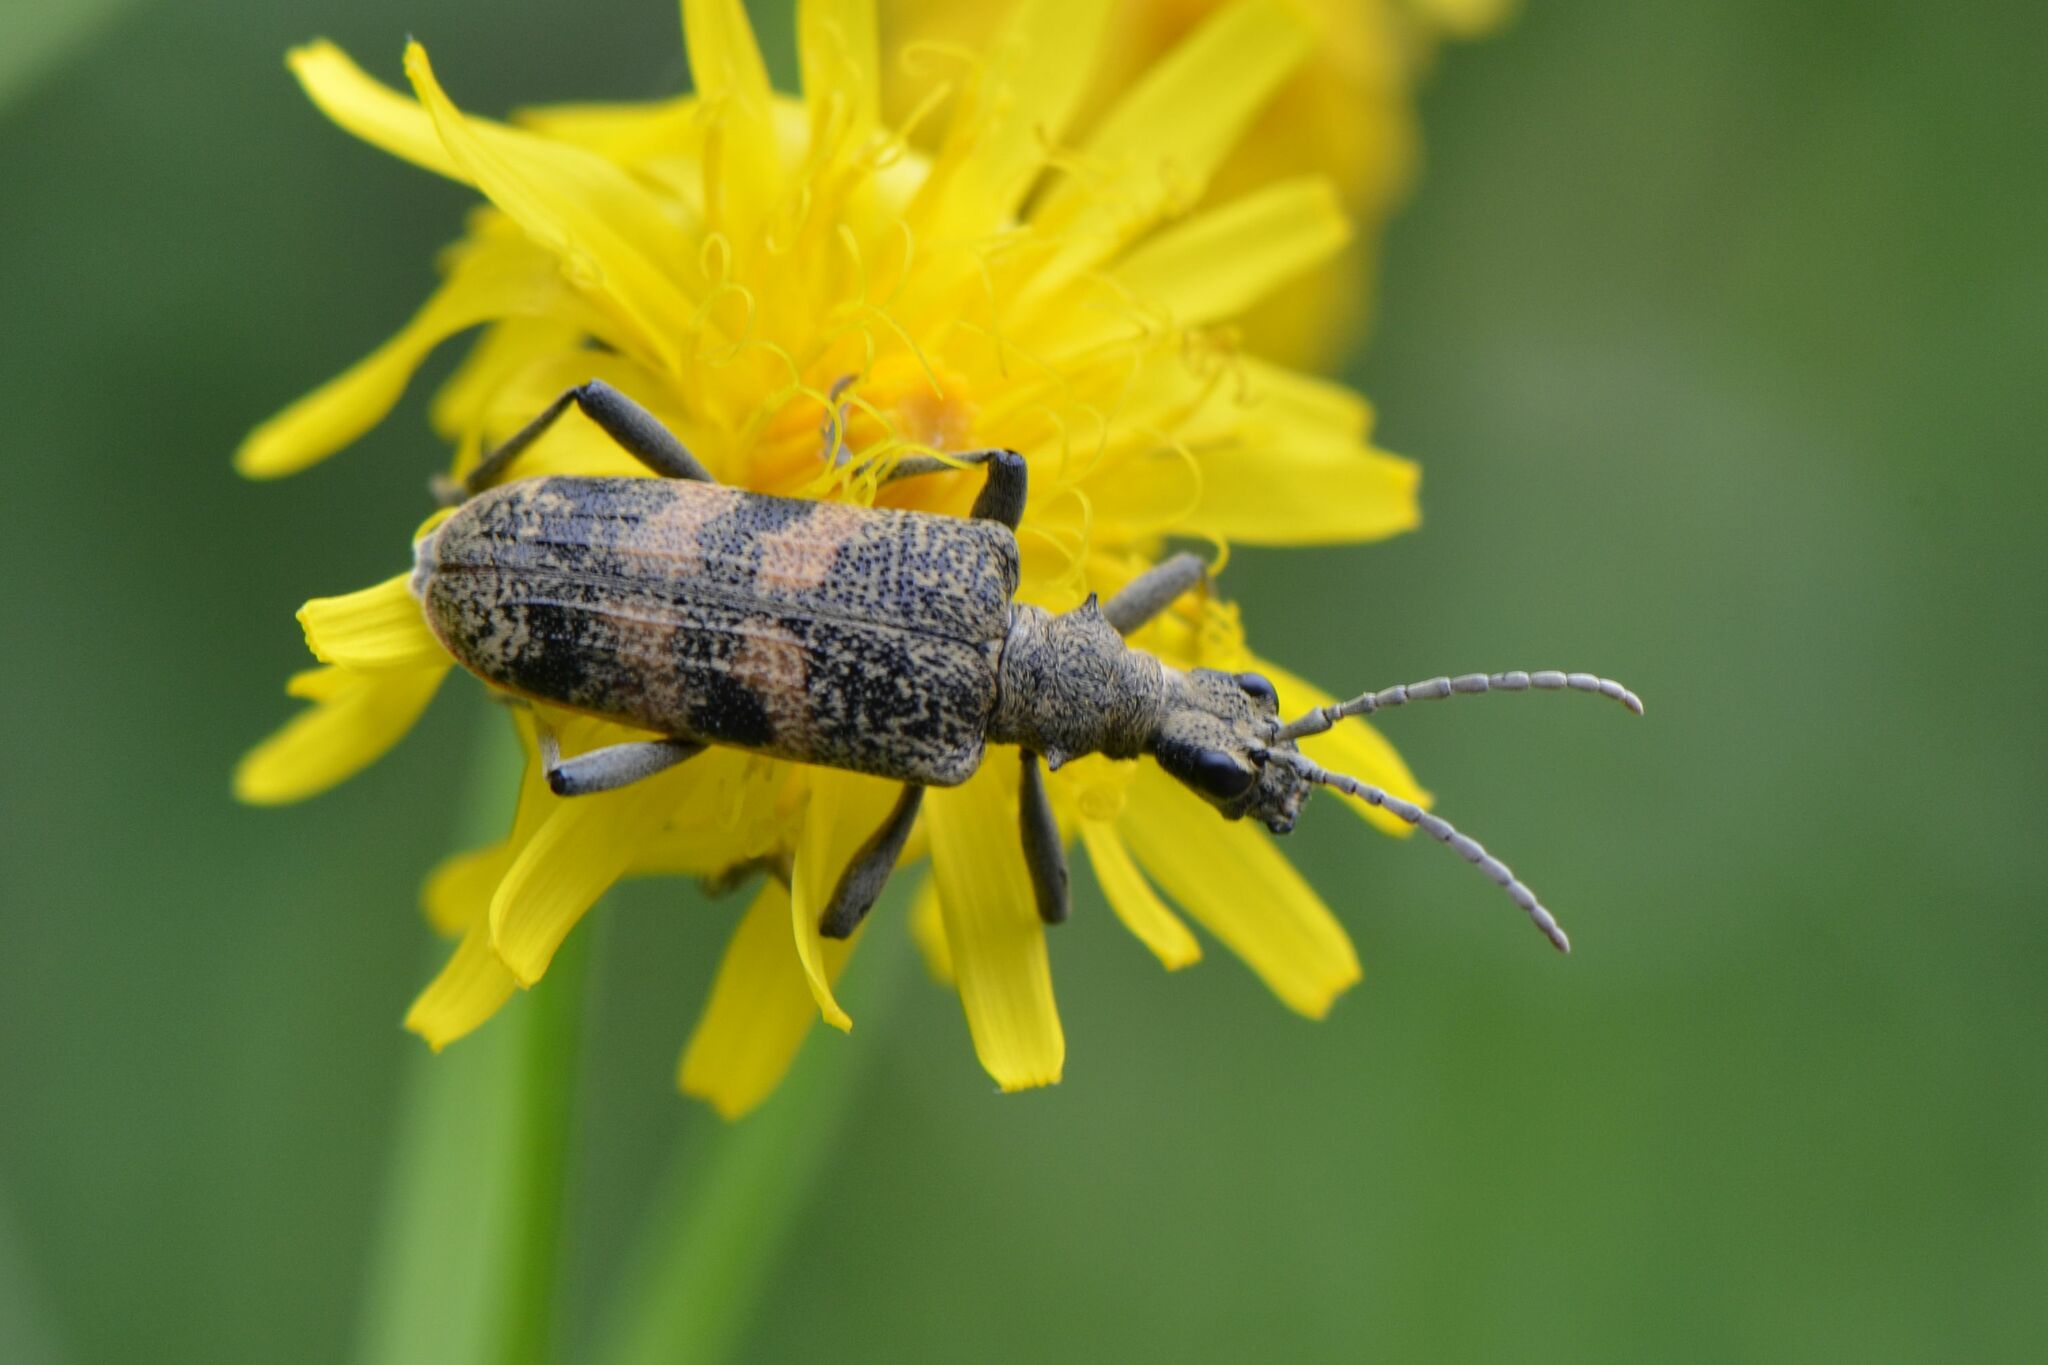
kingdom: Animalia
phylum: Arthropoda
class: Insecta
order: Coleoptera
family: Cerambycidae
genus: Rhagium
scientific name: Rhagium mordax
